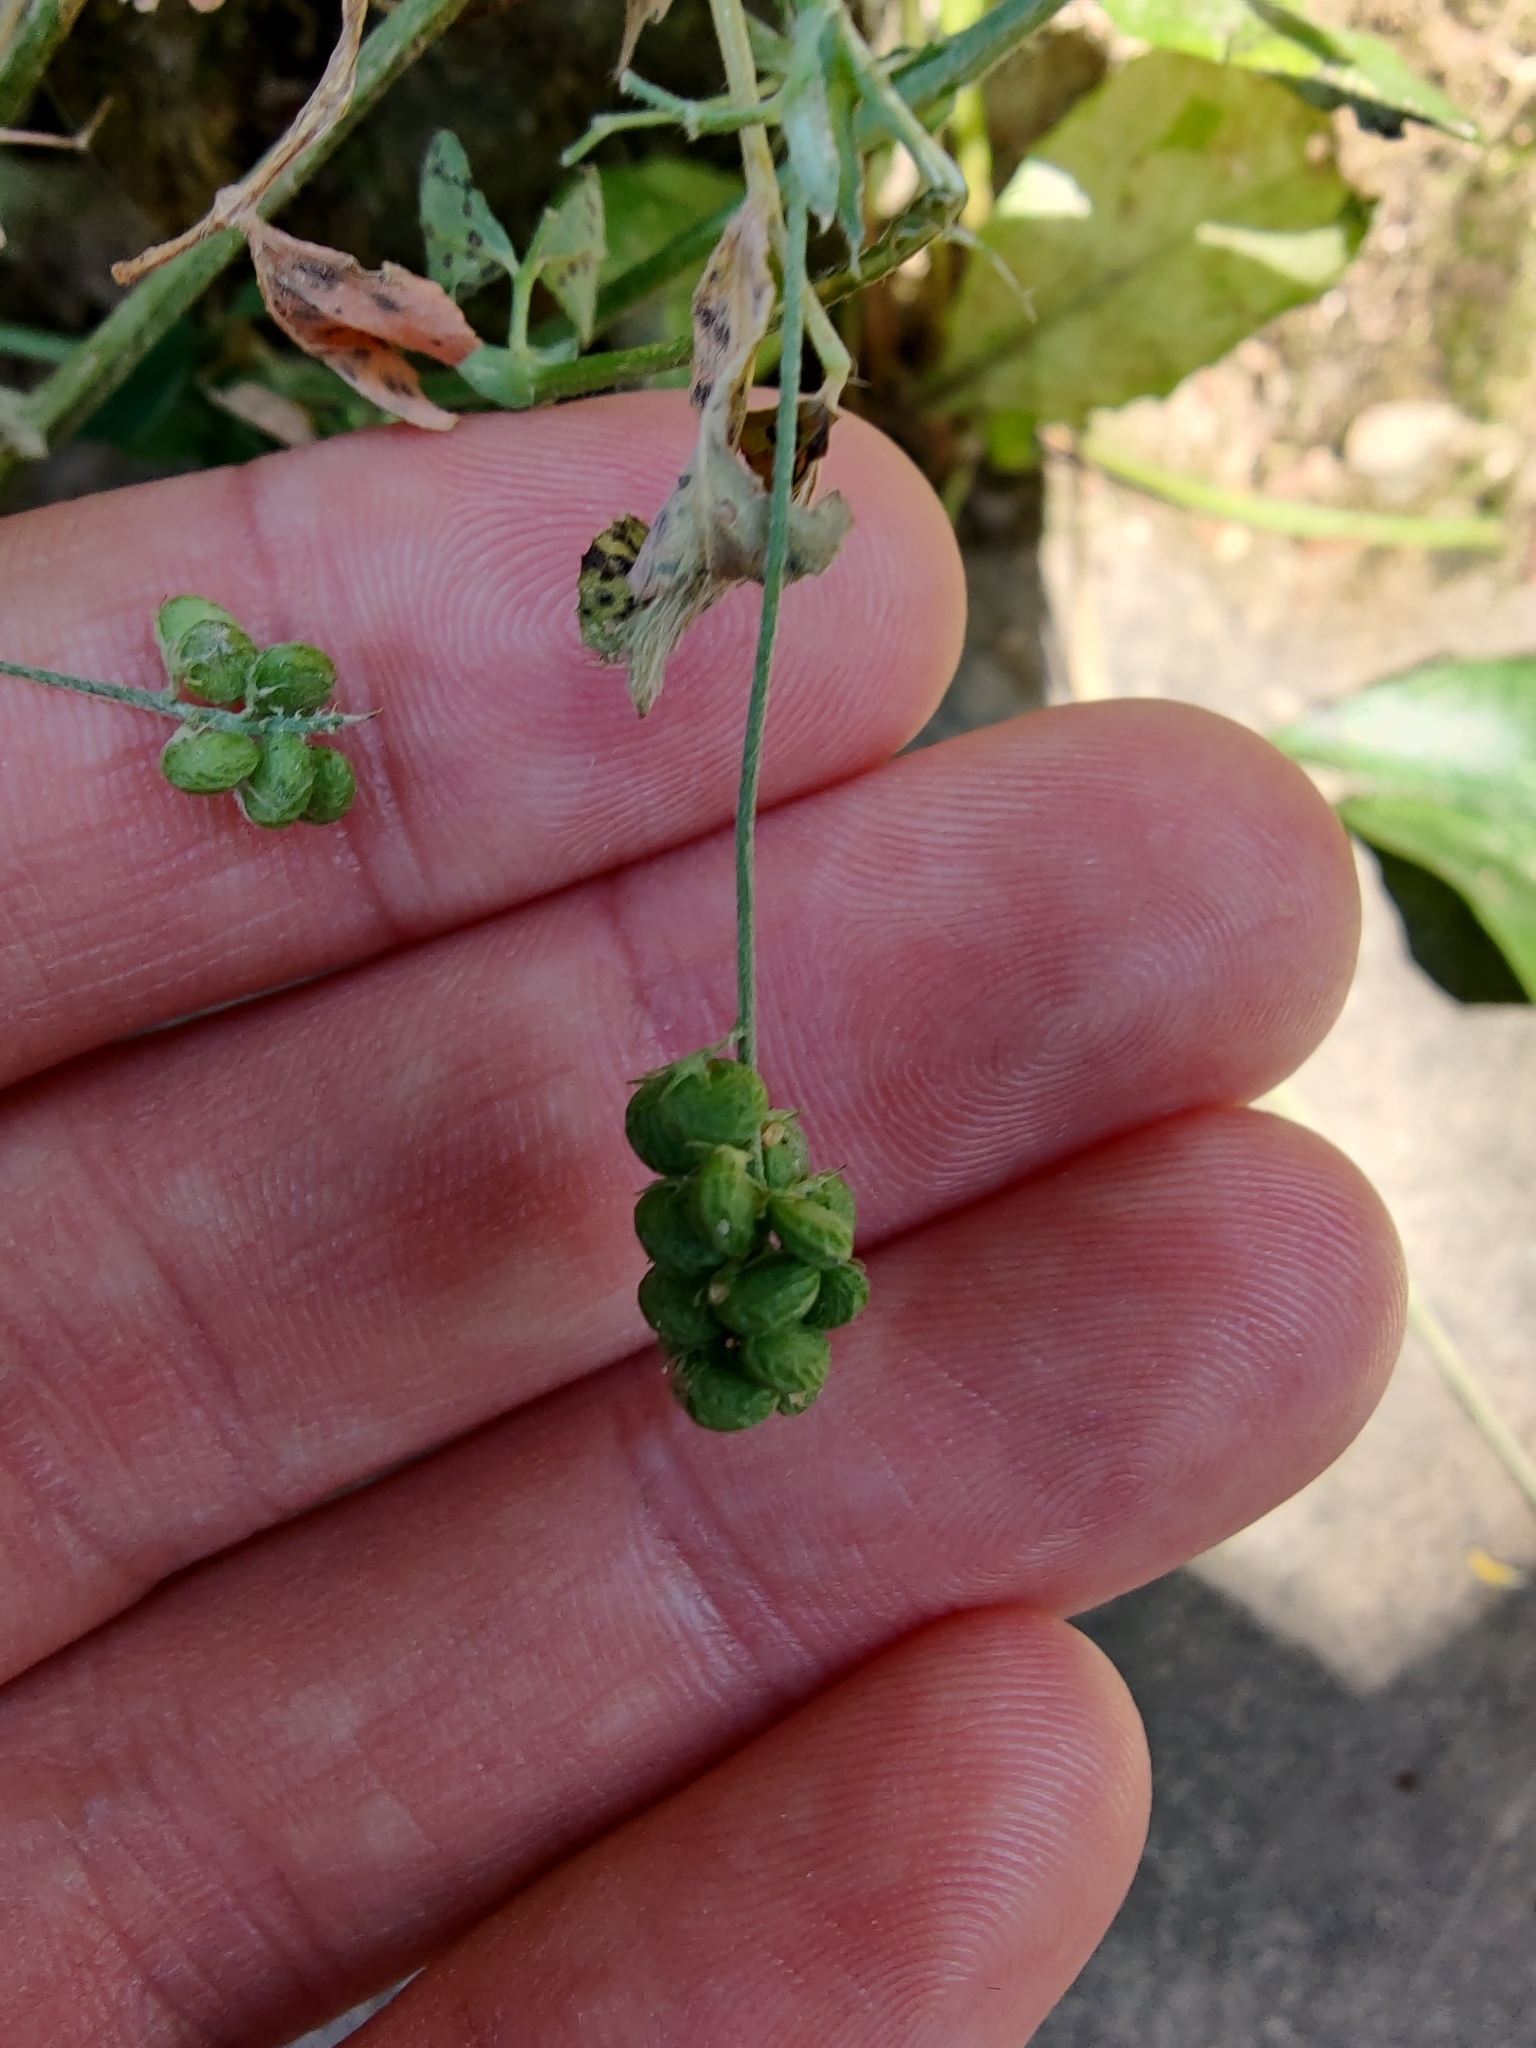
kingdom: Plantae
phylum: Tracheophyta
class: Magnoliopsida
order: Fabales
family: Fabaceae
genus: Medicago
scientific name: Medicago lupulina
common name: Black medick
